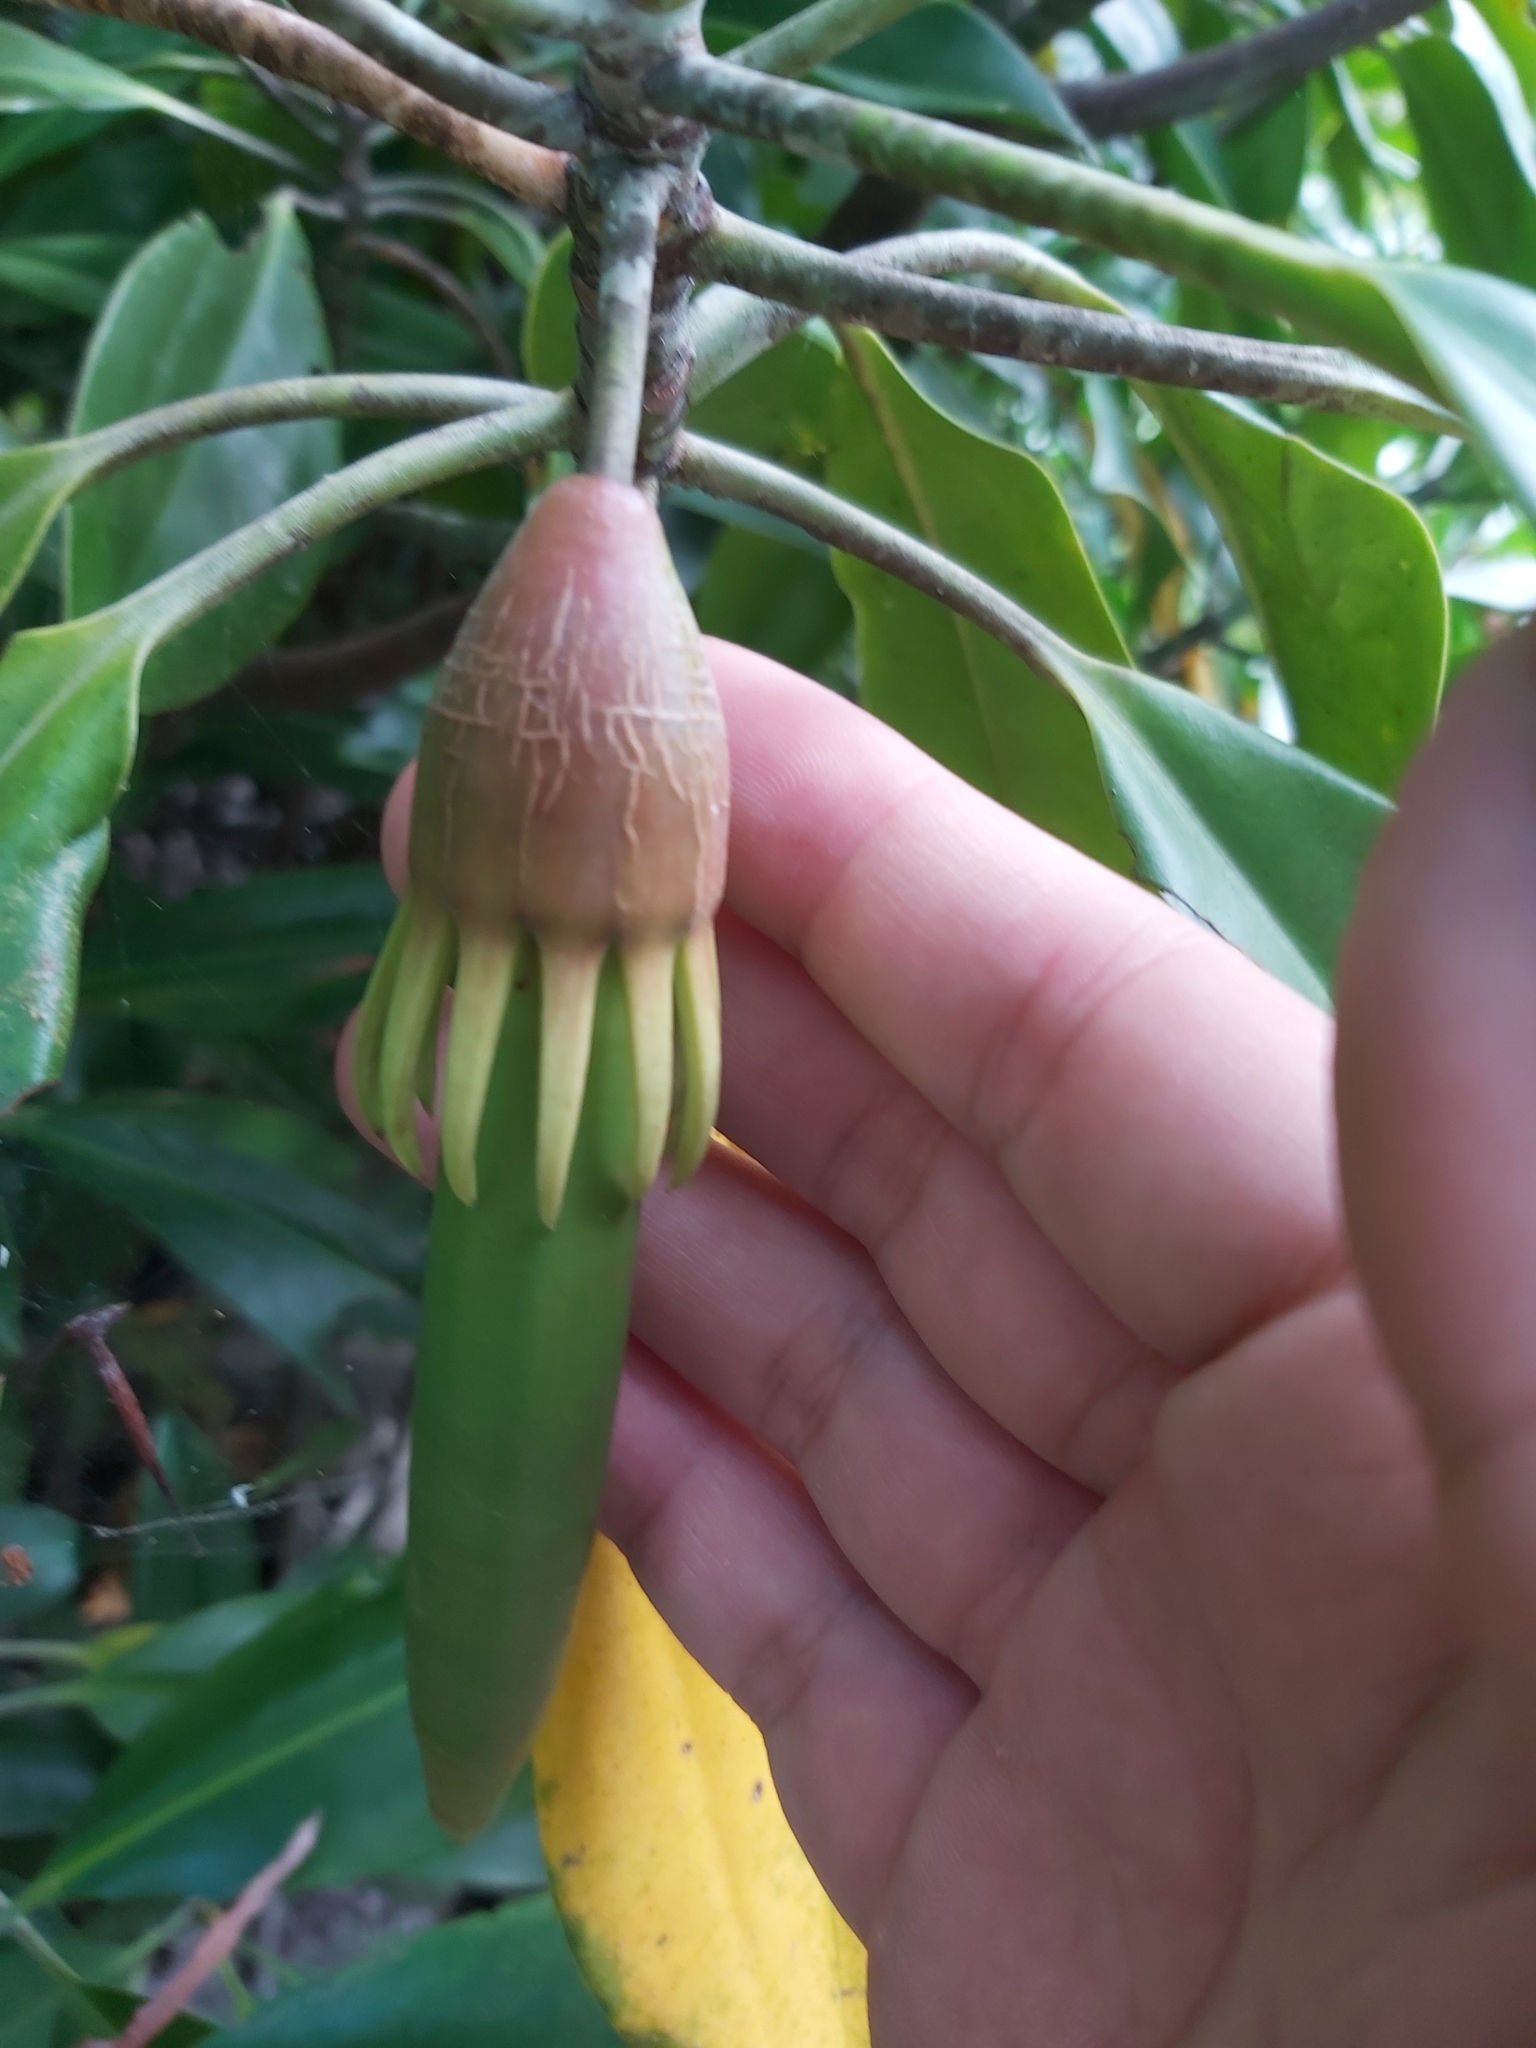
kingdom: Plantae
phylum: Tracheophyta
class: Magnoliopsida
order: Malpighiales
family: Rhizophoraceae
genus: Bruguiera
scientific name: Bruguiera gymnorhiza
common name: Oriental mangrove
